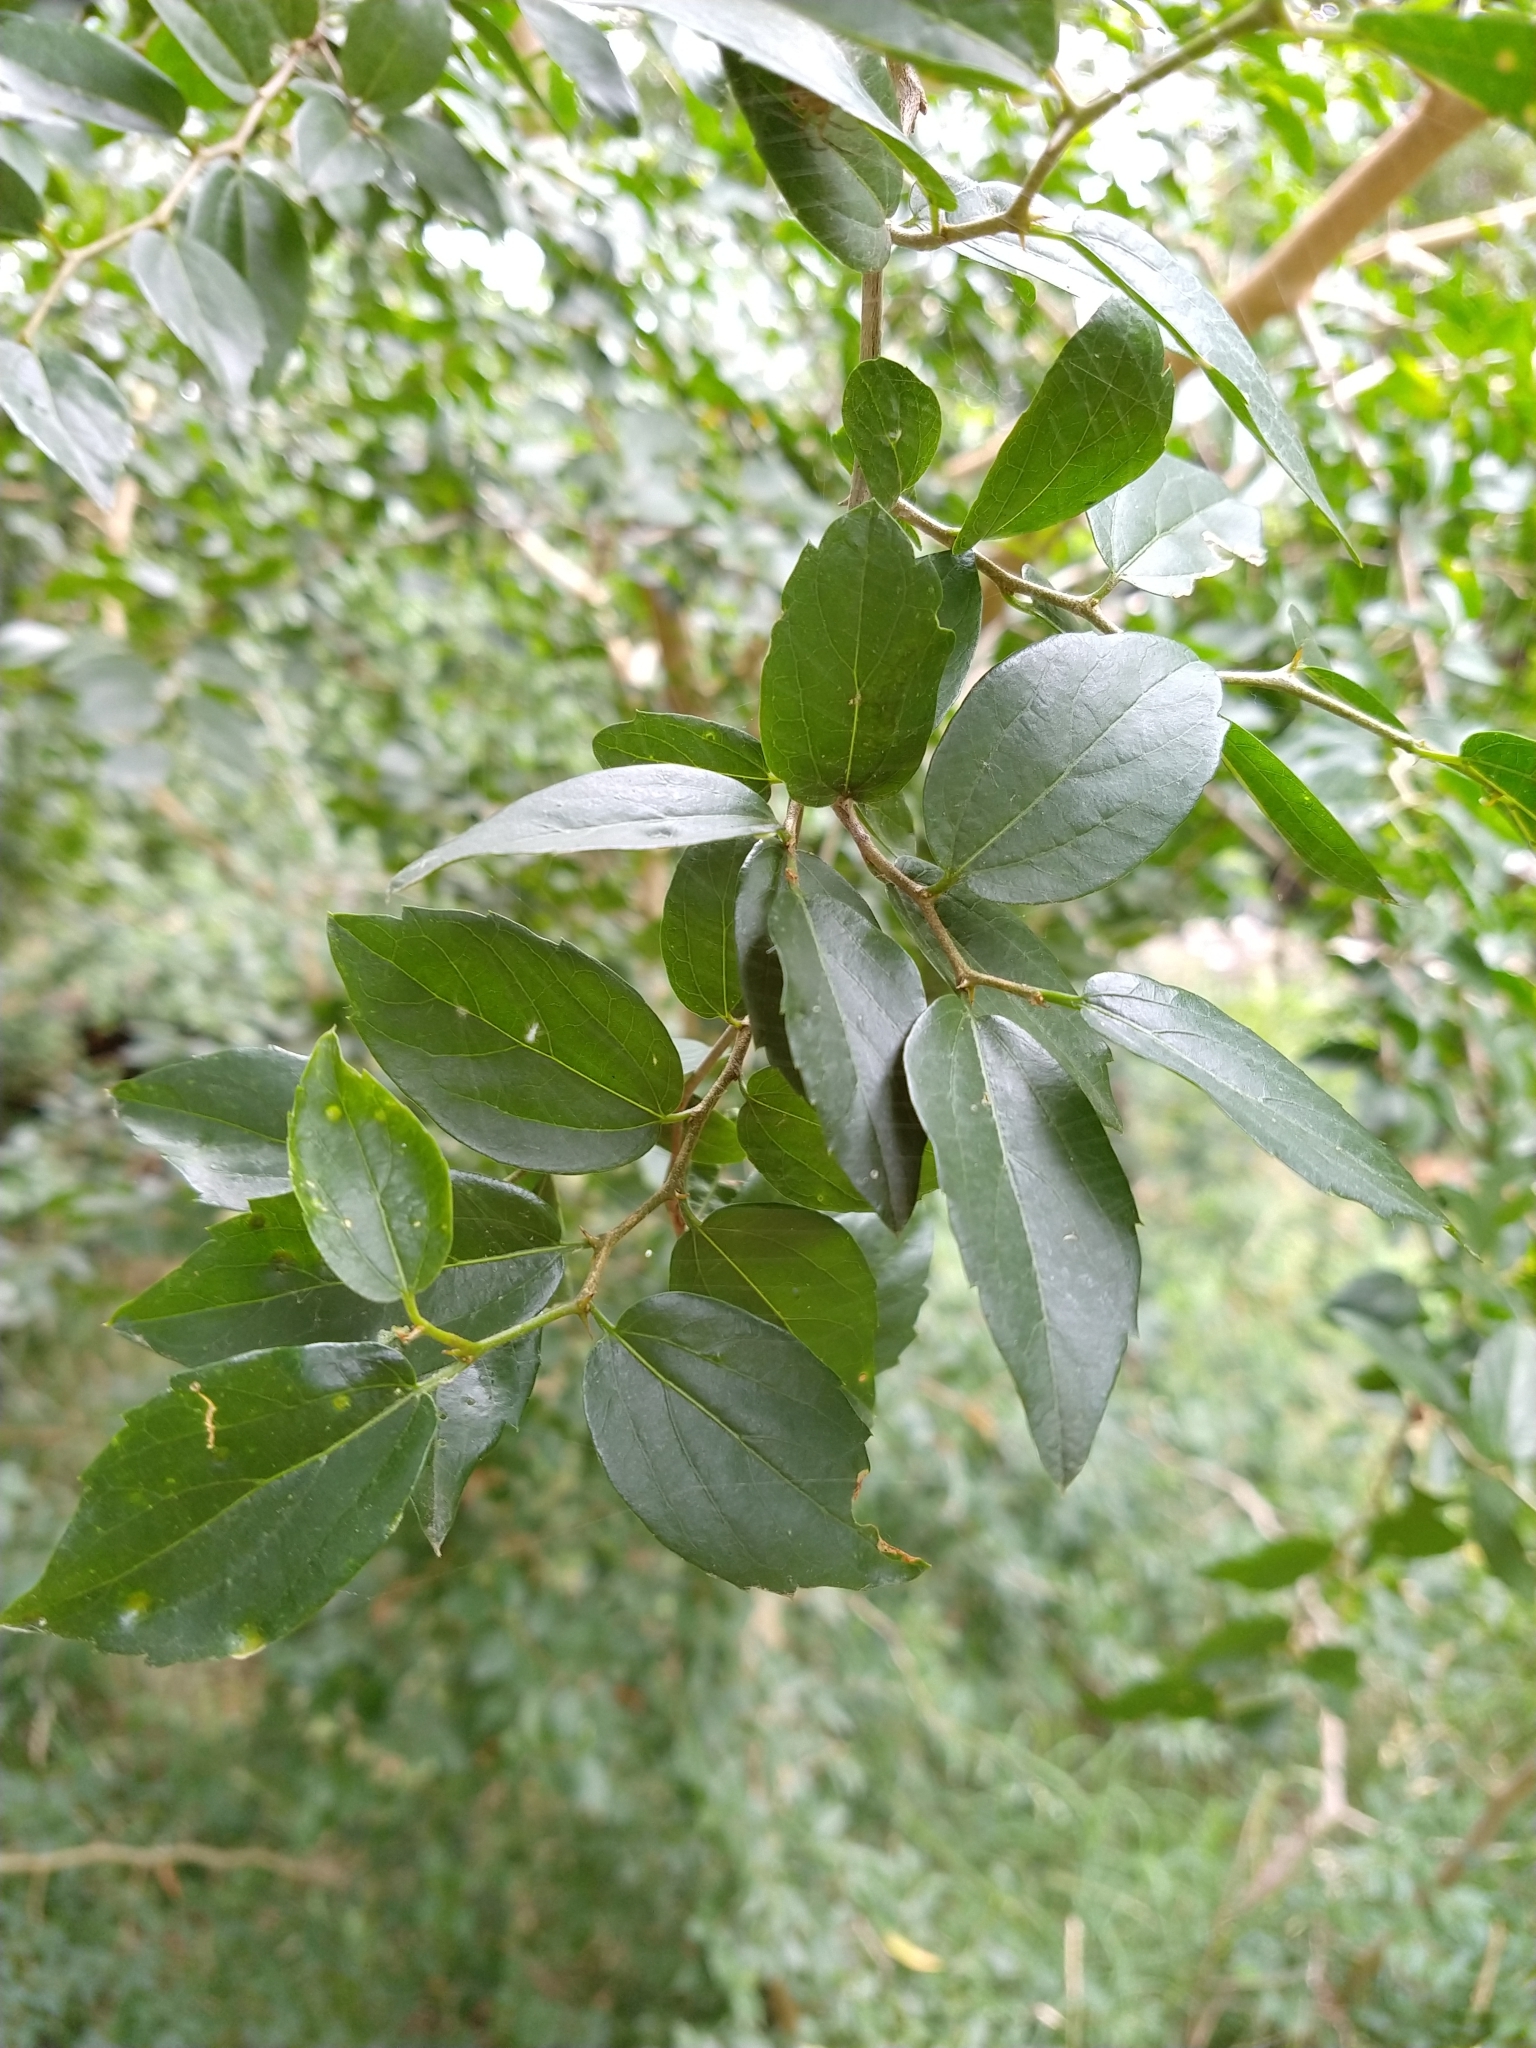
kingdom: Plantae
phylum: Tracheophyta
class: Magnoliopsida
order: Rosales
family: Cannabaceae
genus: Celtis
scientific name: Celtis tala
